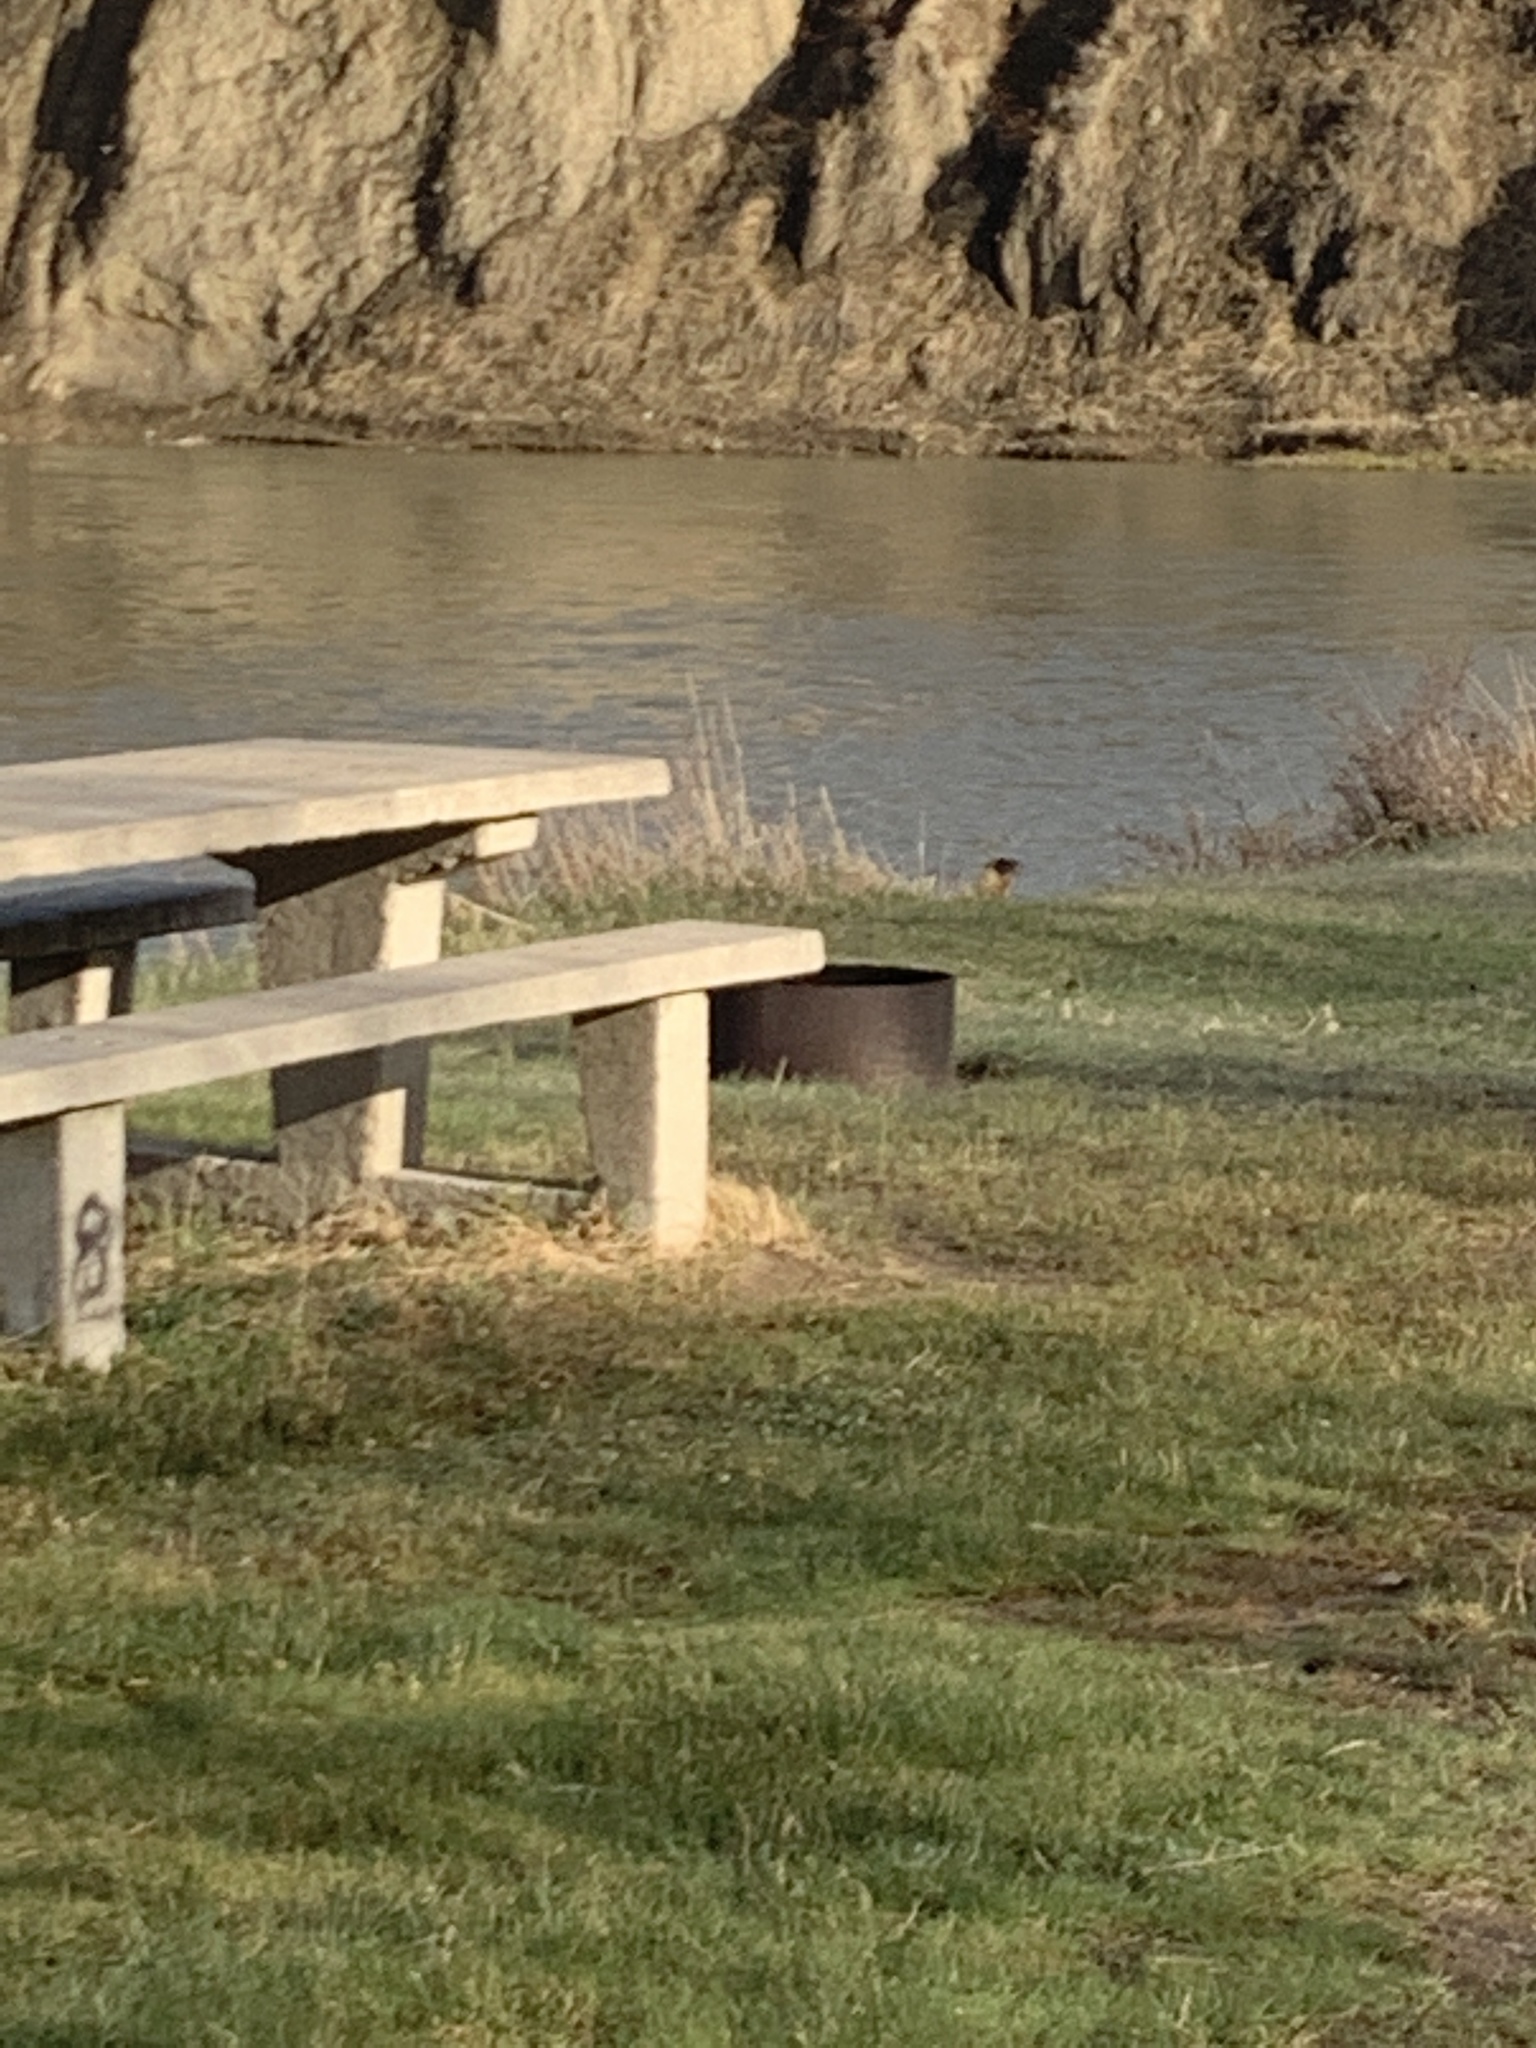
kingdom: Animalia
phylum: Chordata
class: Mammalia
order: Rodentia
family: Sciuridae
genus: Marmota
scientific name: Marmota flaviventris
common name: Yellow-bellied marmot
